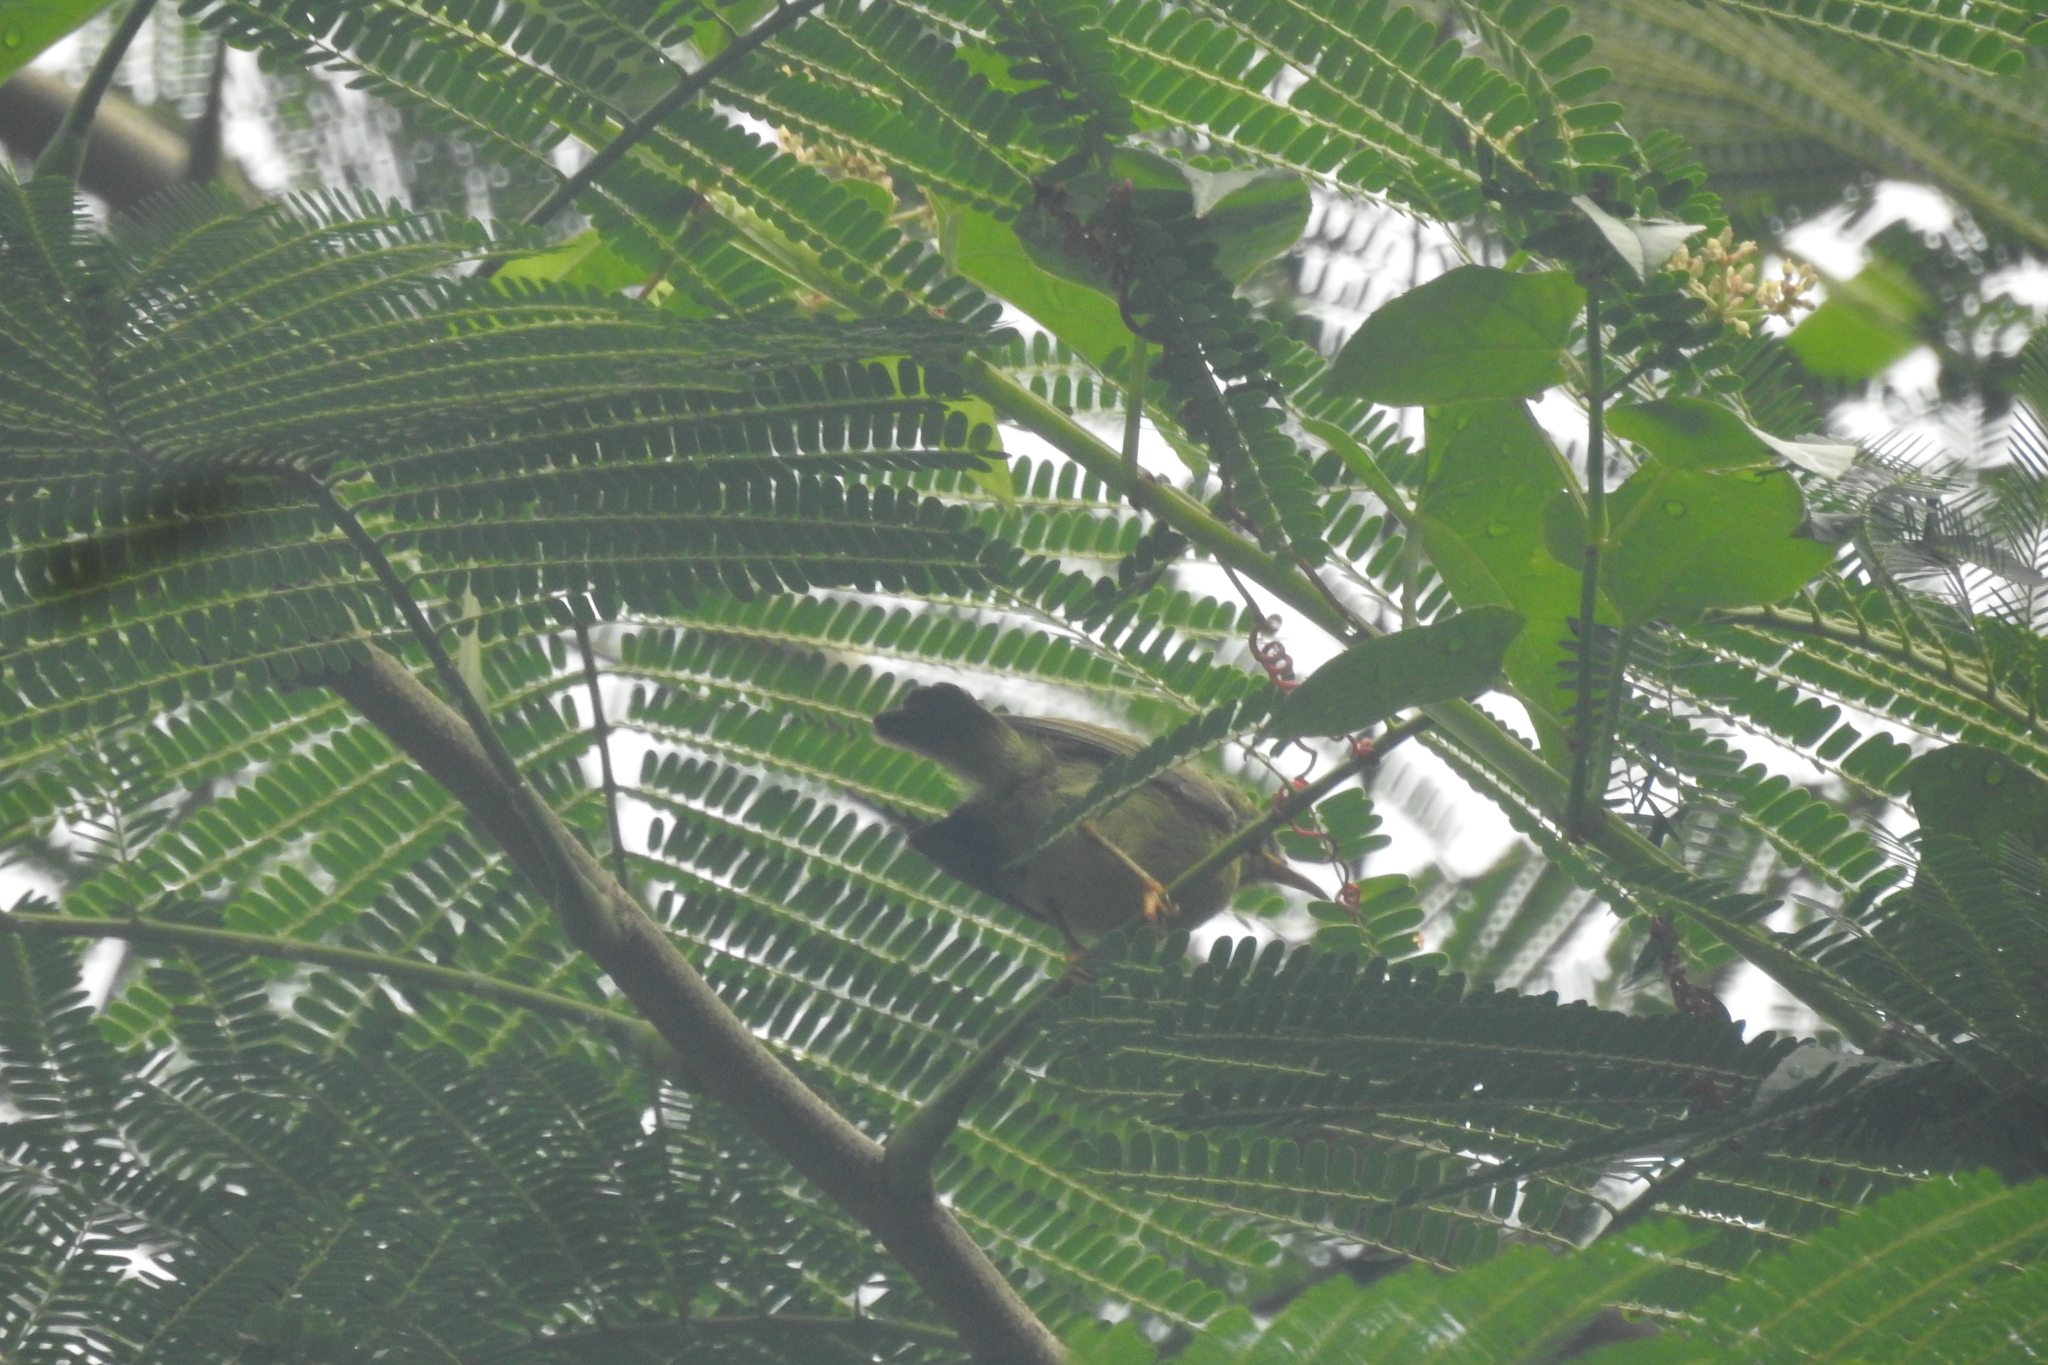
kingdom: Animalia
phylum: Chordata
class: Aves
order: Passeriformes
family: Nectariniidae
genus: Anthreptes
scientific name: Anthreptes malacensis
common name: Brown-throated sunbird
